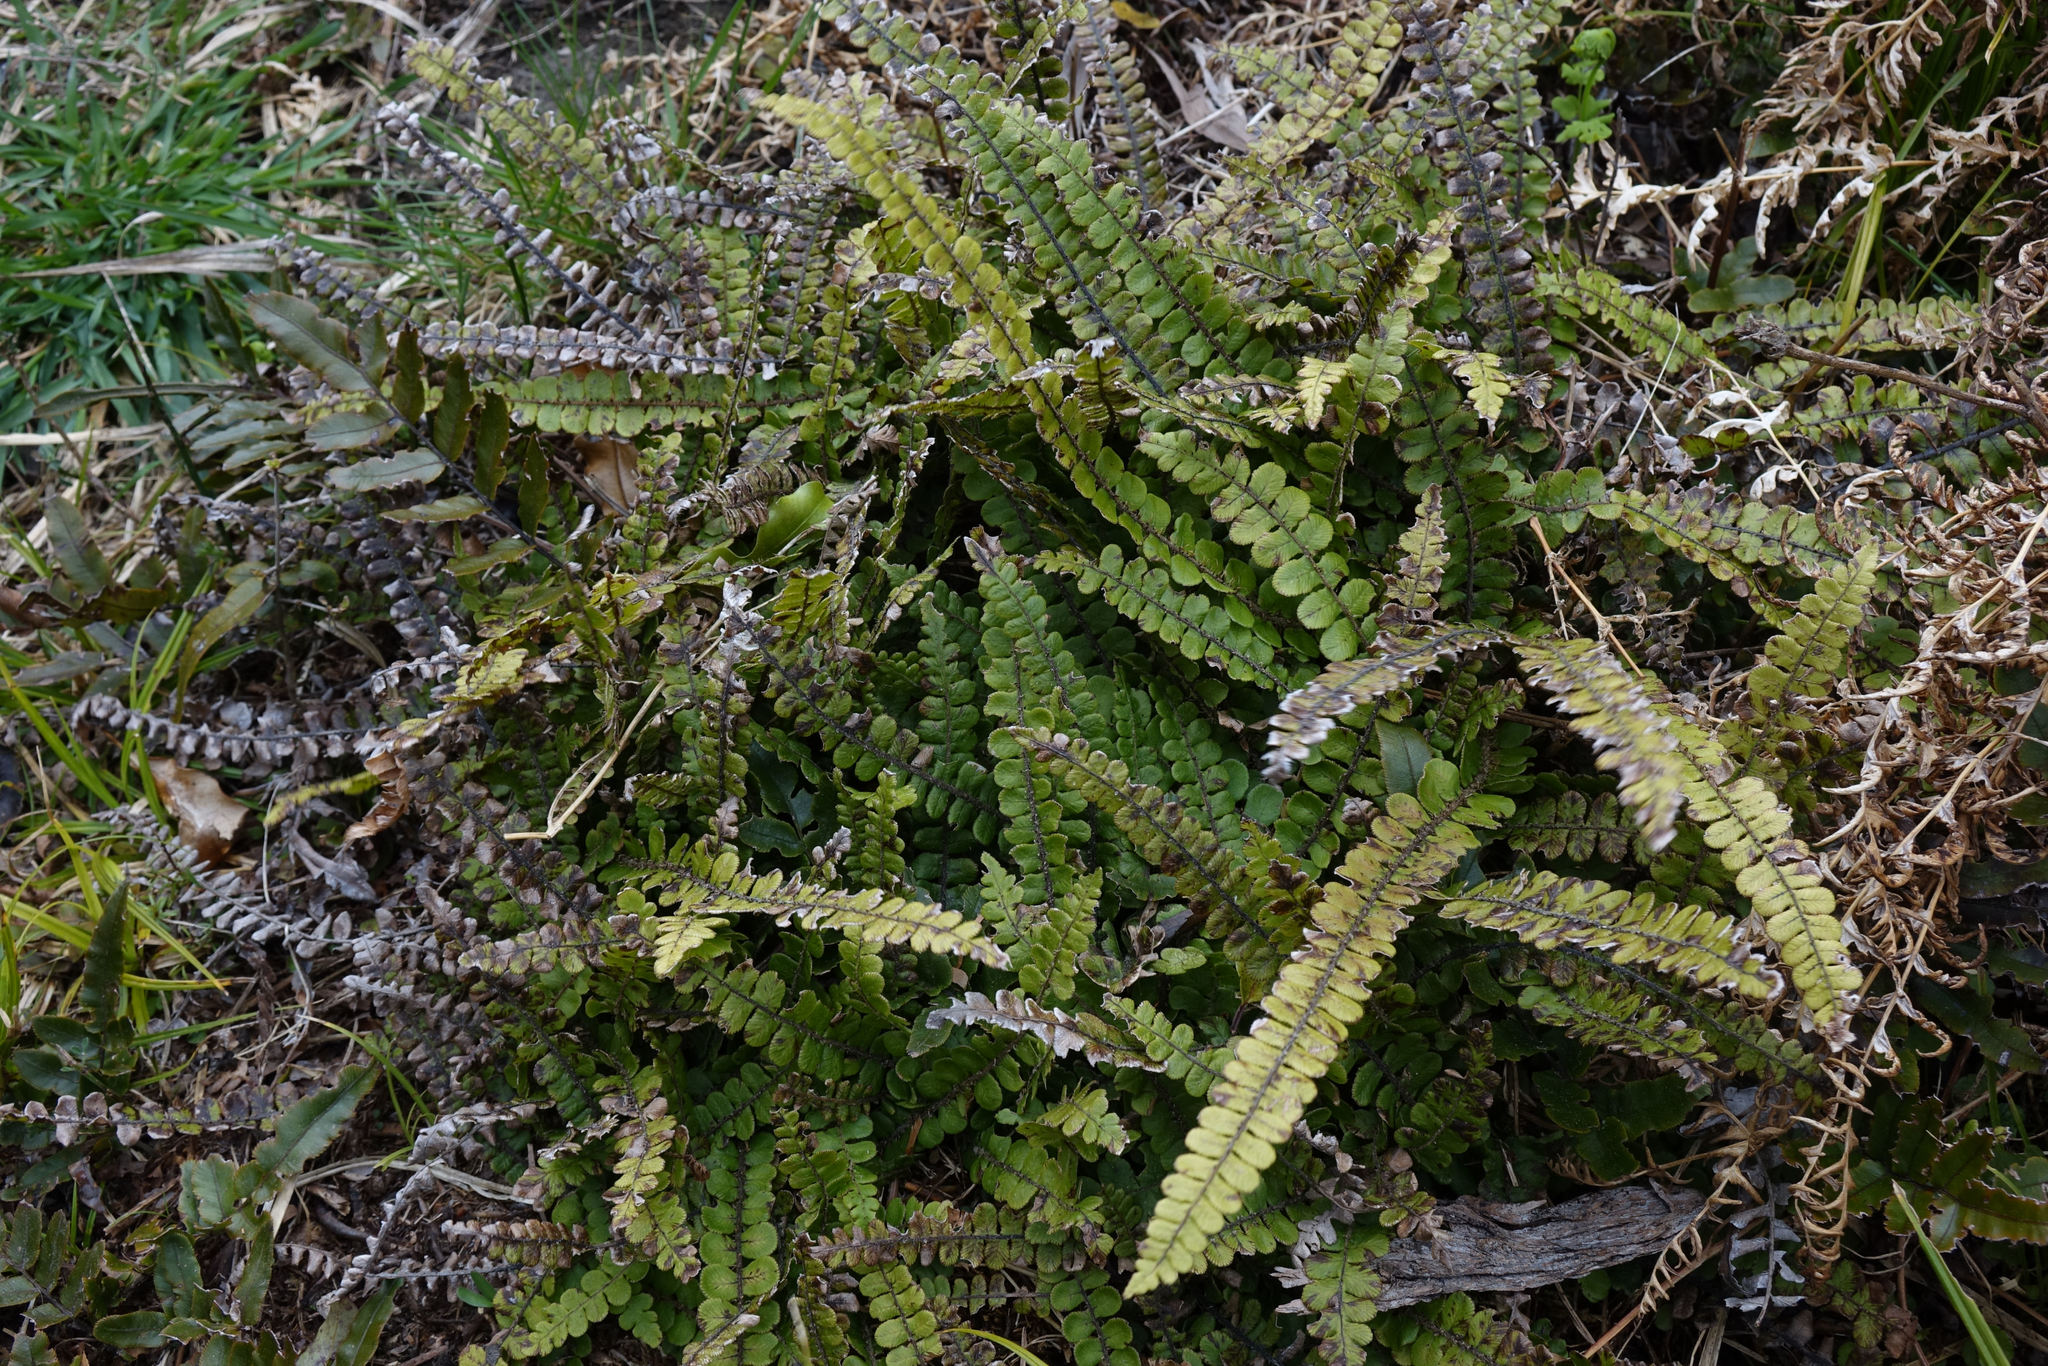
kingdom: Plantae
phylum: Tracheophyta
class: Polypodiopsida
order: Polypodiales
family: Blechnaceae
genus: Cranfillia
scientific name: Cranfillia fluviatilis
